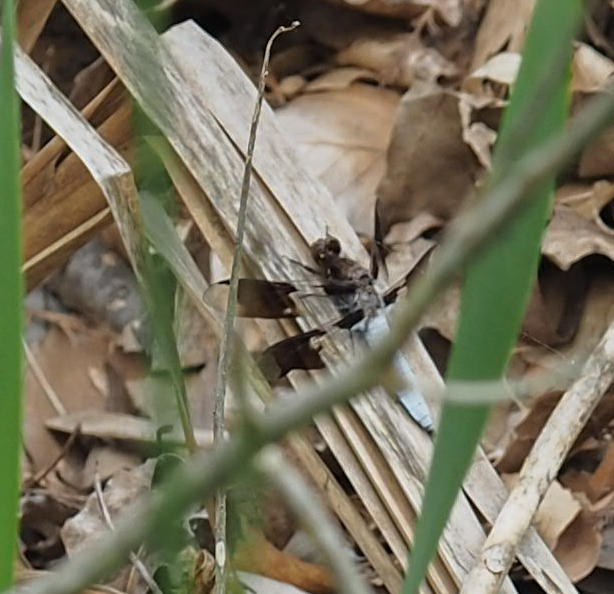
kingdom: Animalia
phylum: Arthropoda
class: Insecta
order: Odonata
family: Libellulidae
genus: Plathemis
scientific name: Plathemis lydia
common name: Common whitetail
